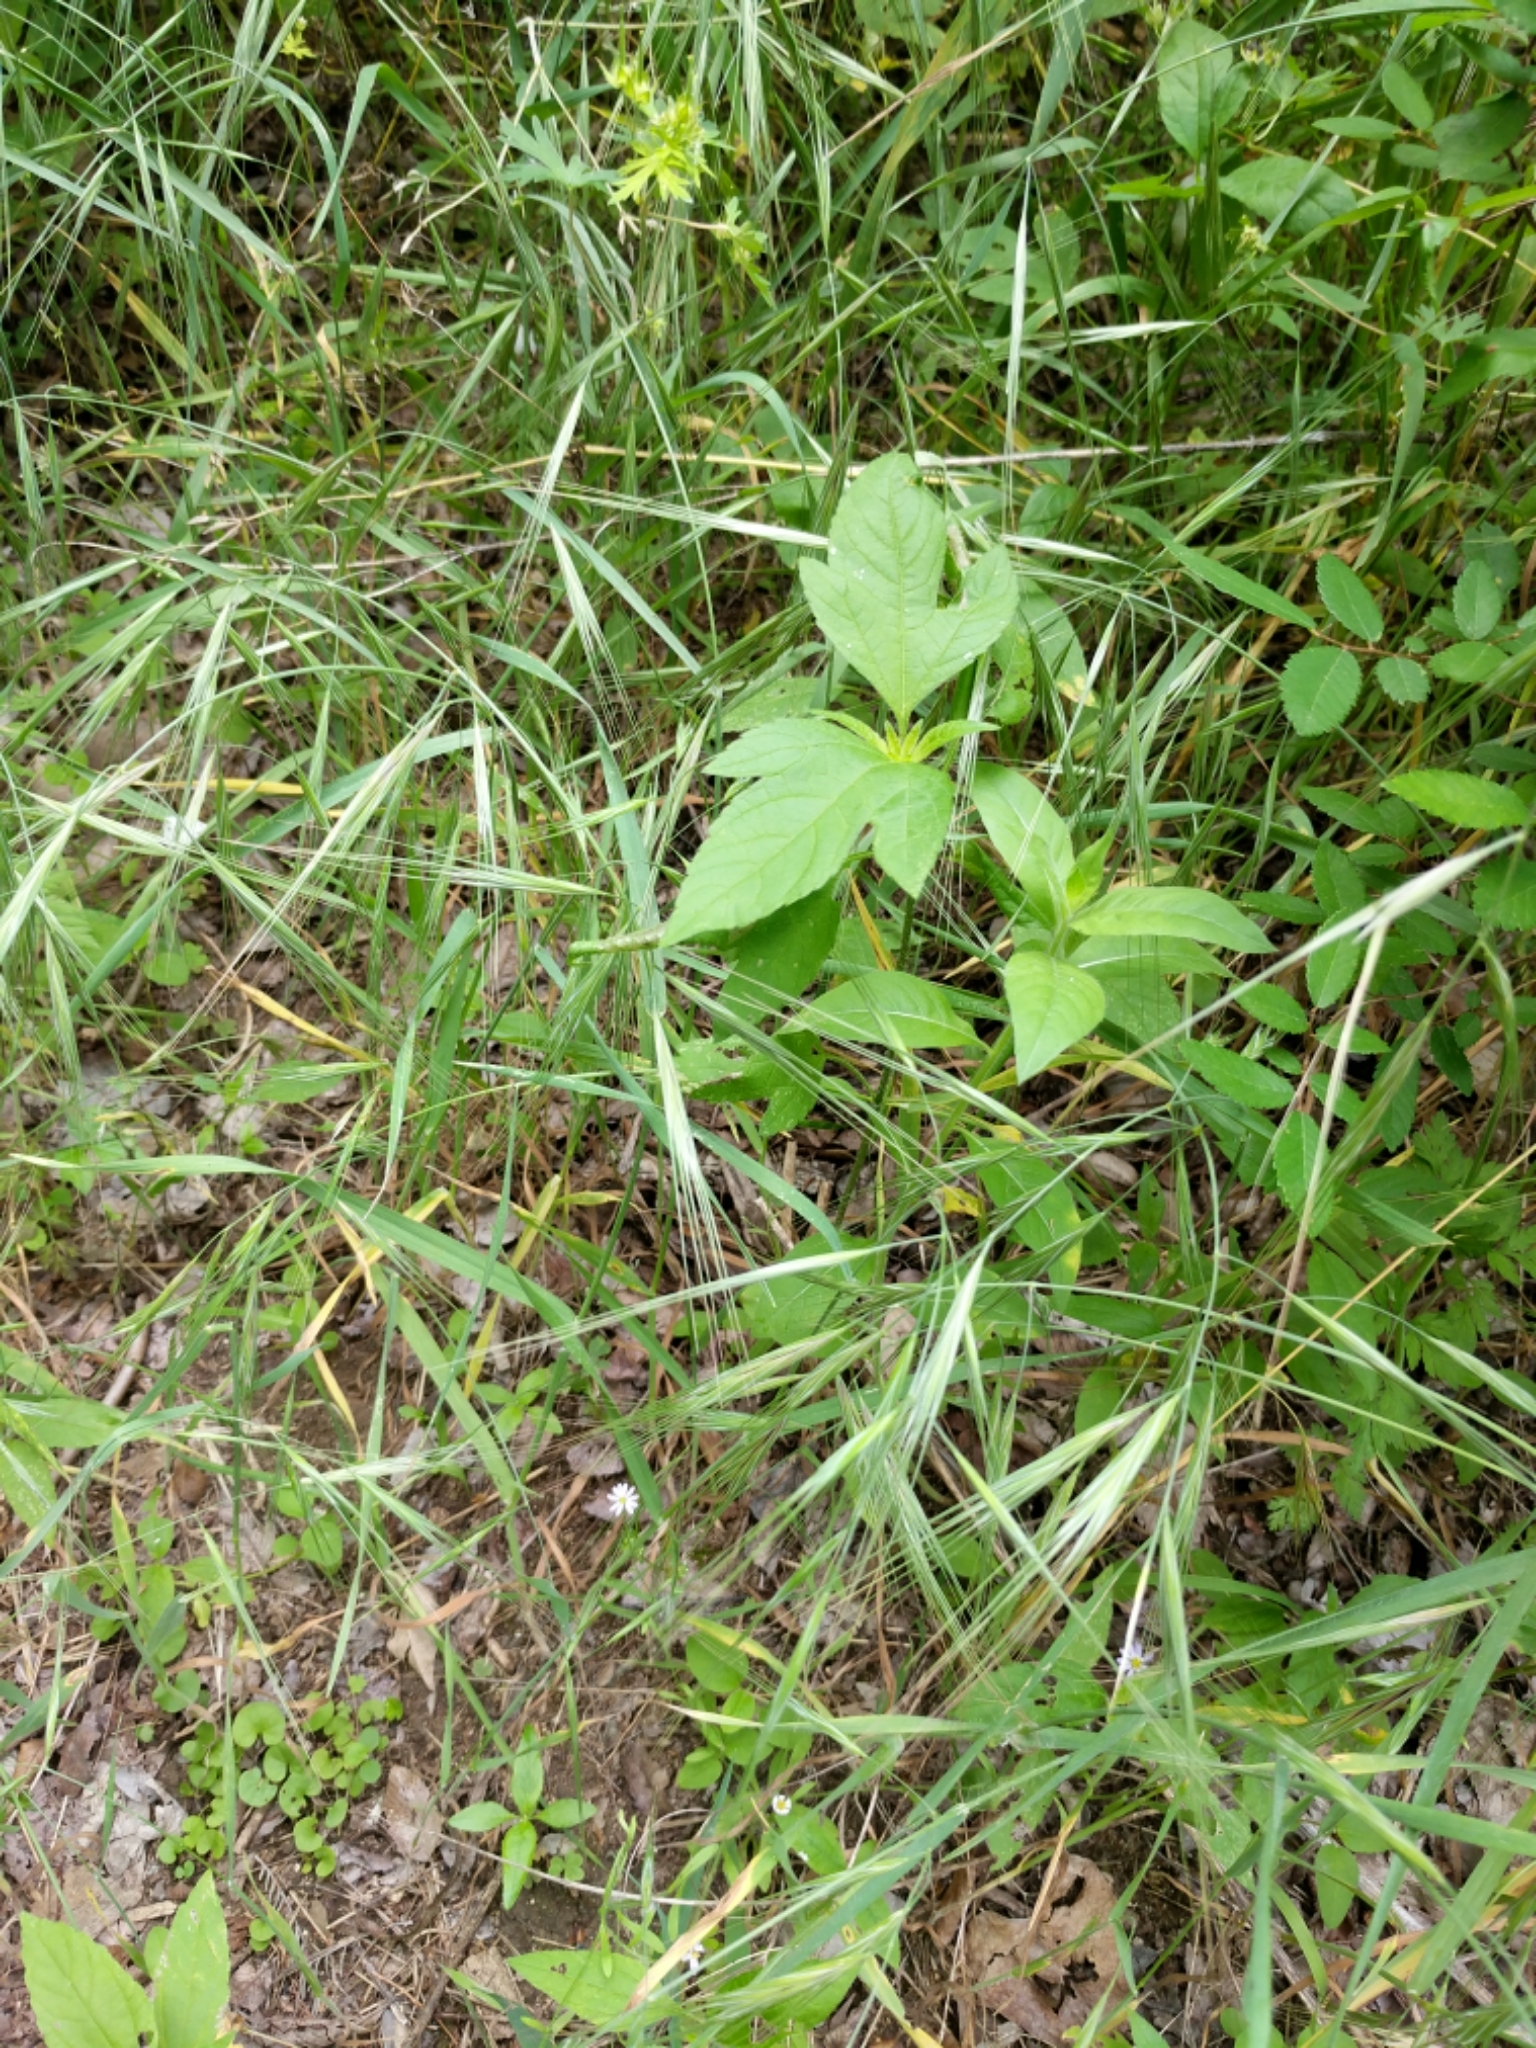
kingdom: Plantae
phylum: Tracheophyta
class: Liliopsida
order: Poales
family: Poaceae
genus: Bromus
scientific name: Bromus diandrus
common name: Ripgut brome
